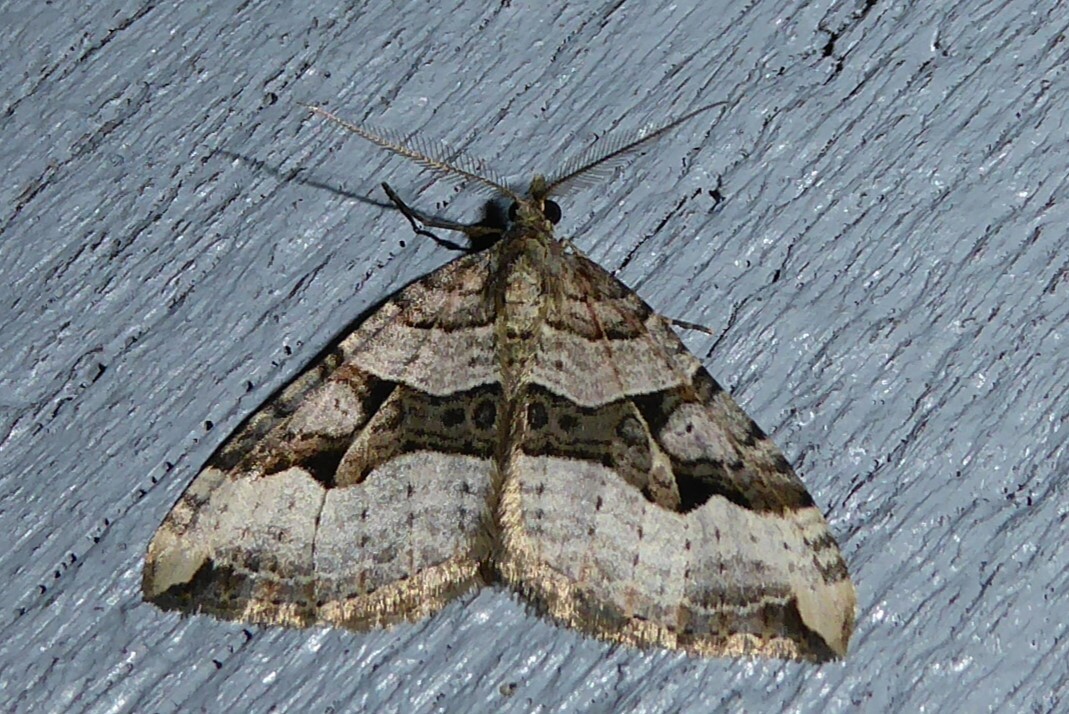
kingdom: Animalia
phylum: Arthropoda
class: Insecta
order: Lepidoptera
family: Geometridae
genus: Xanthorhoe
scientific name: Xanthorhoe semifissata
